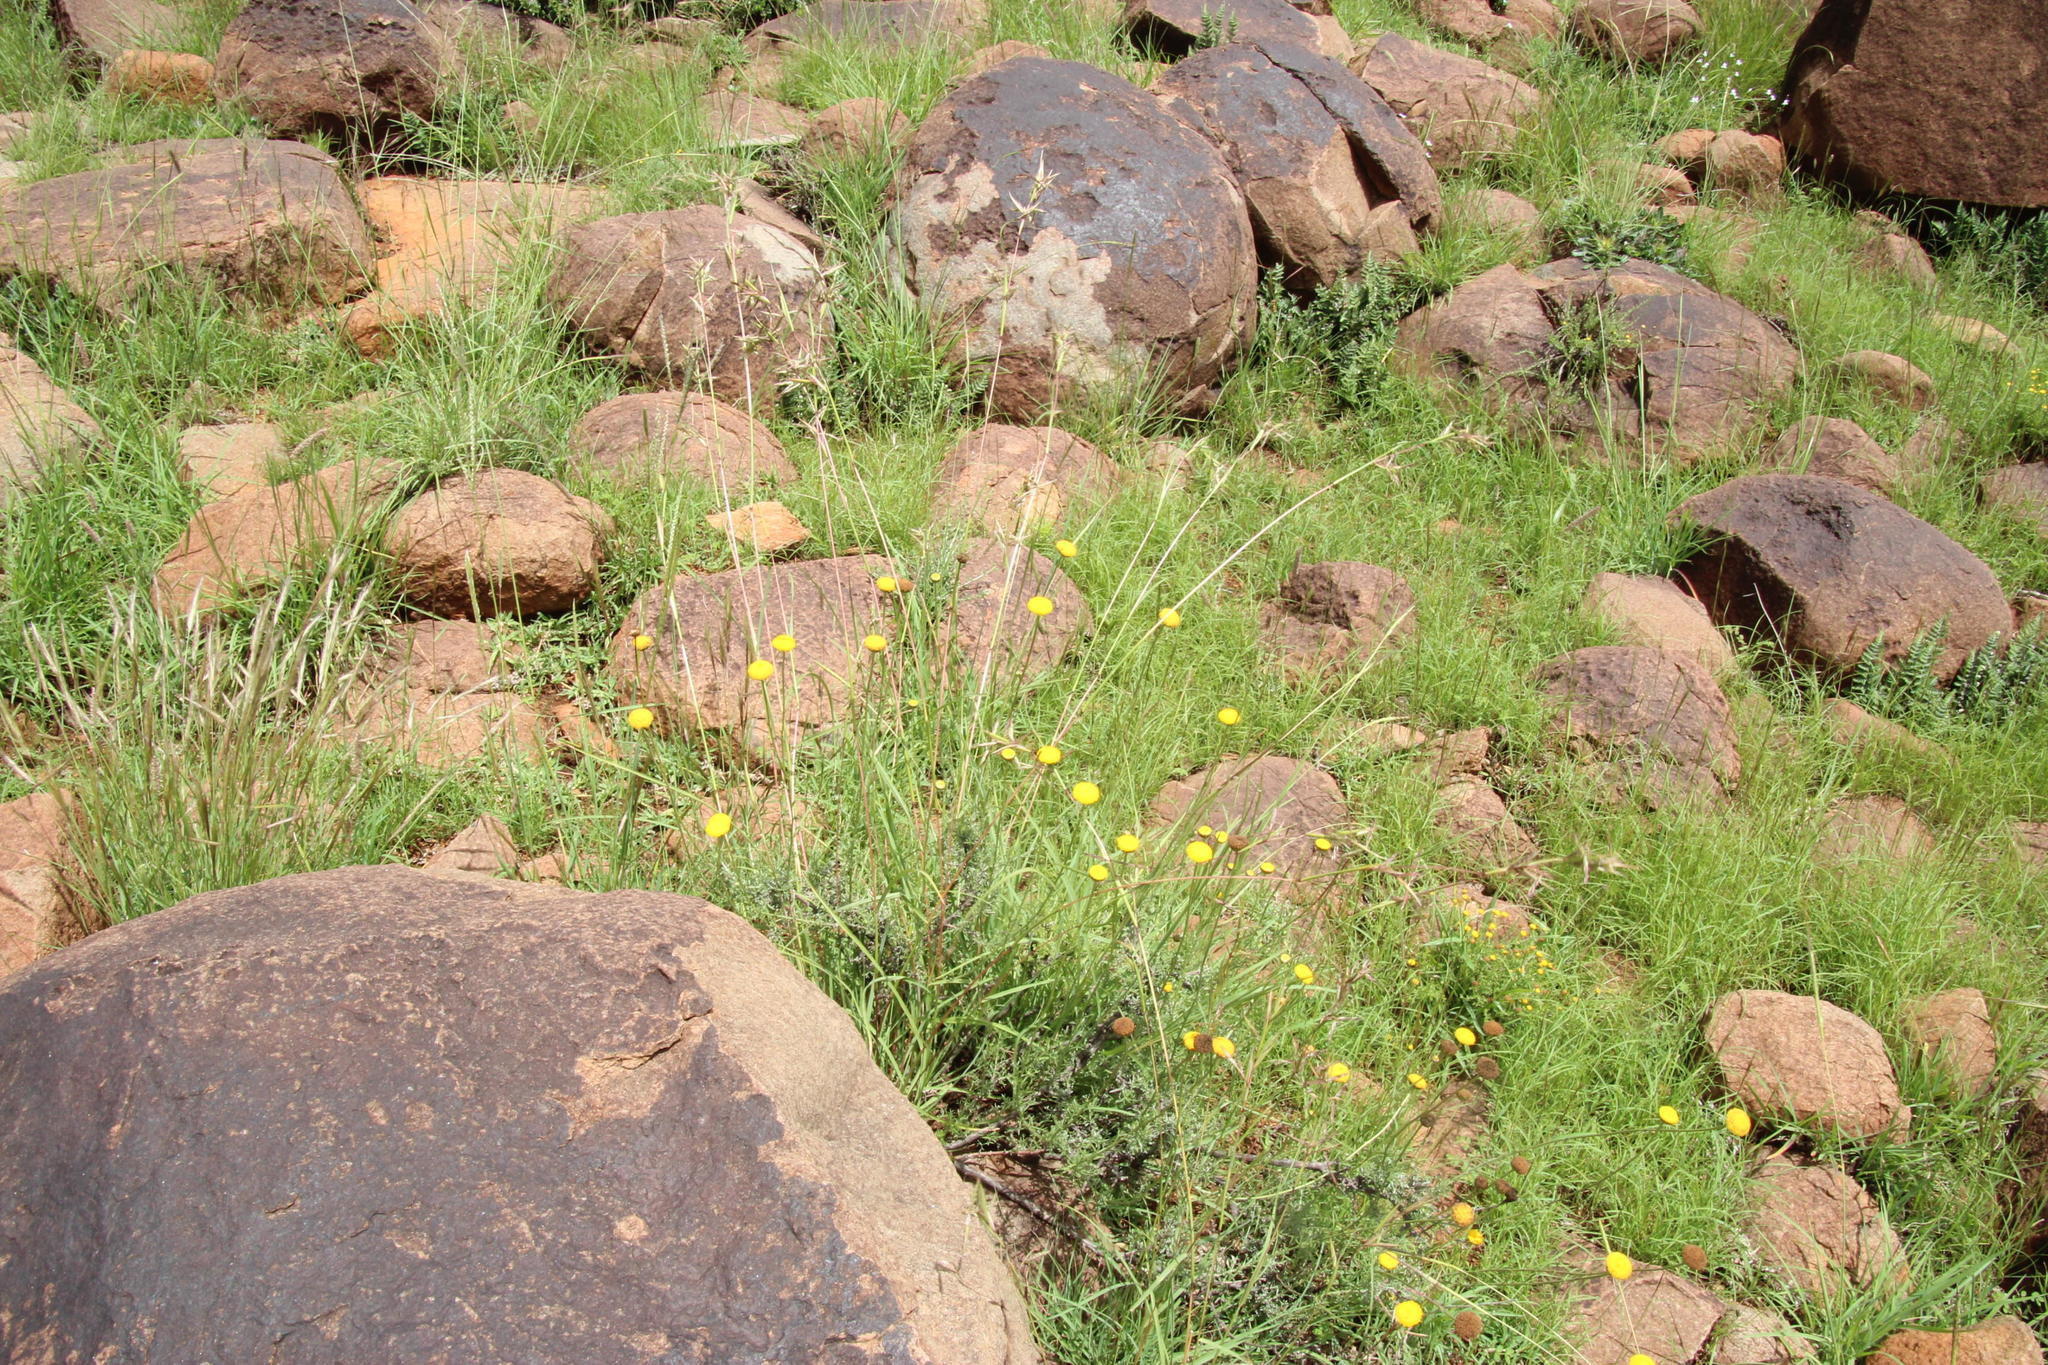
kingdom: Plantae
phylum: Tracheophyta
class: Liliopsida
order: Poales
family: Poaceae
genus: Cymbopogon
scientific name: Cymbopogon pospischilii
